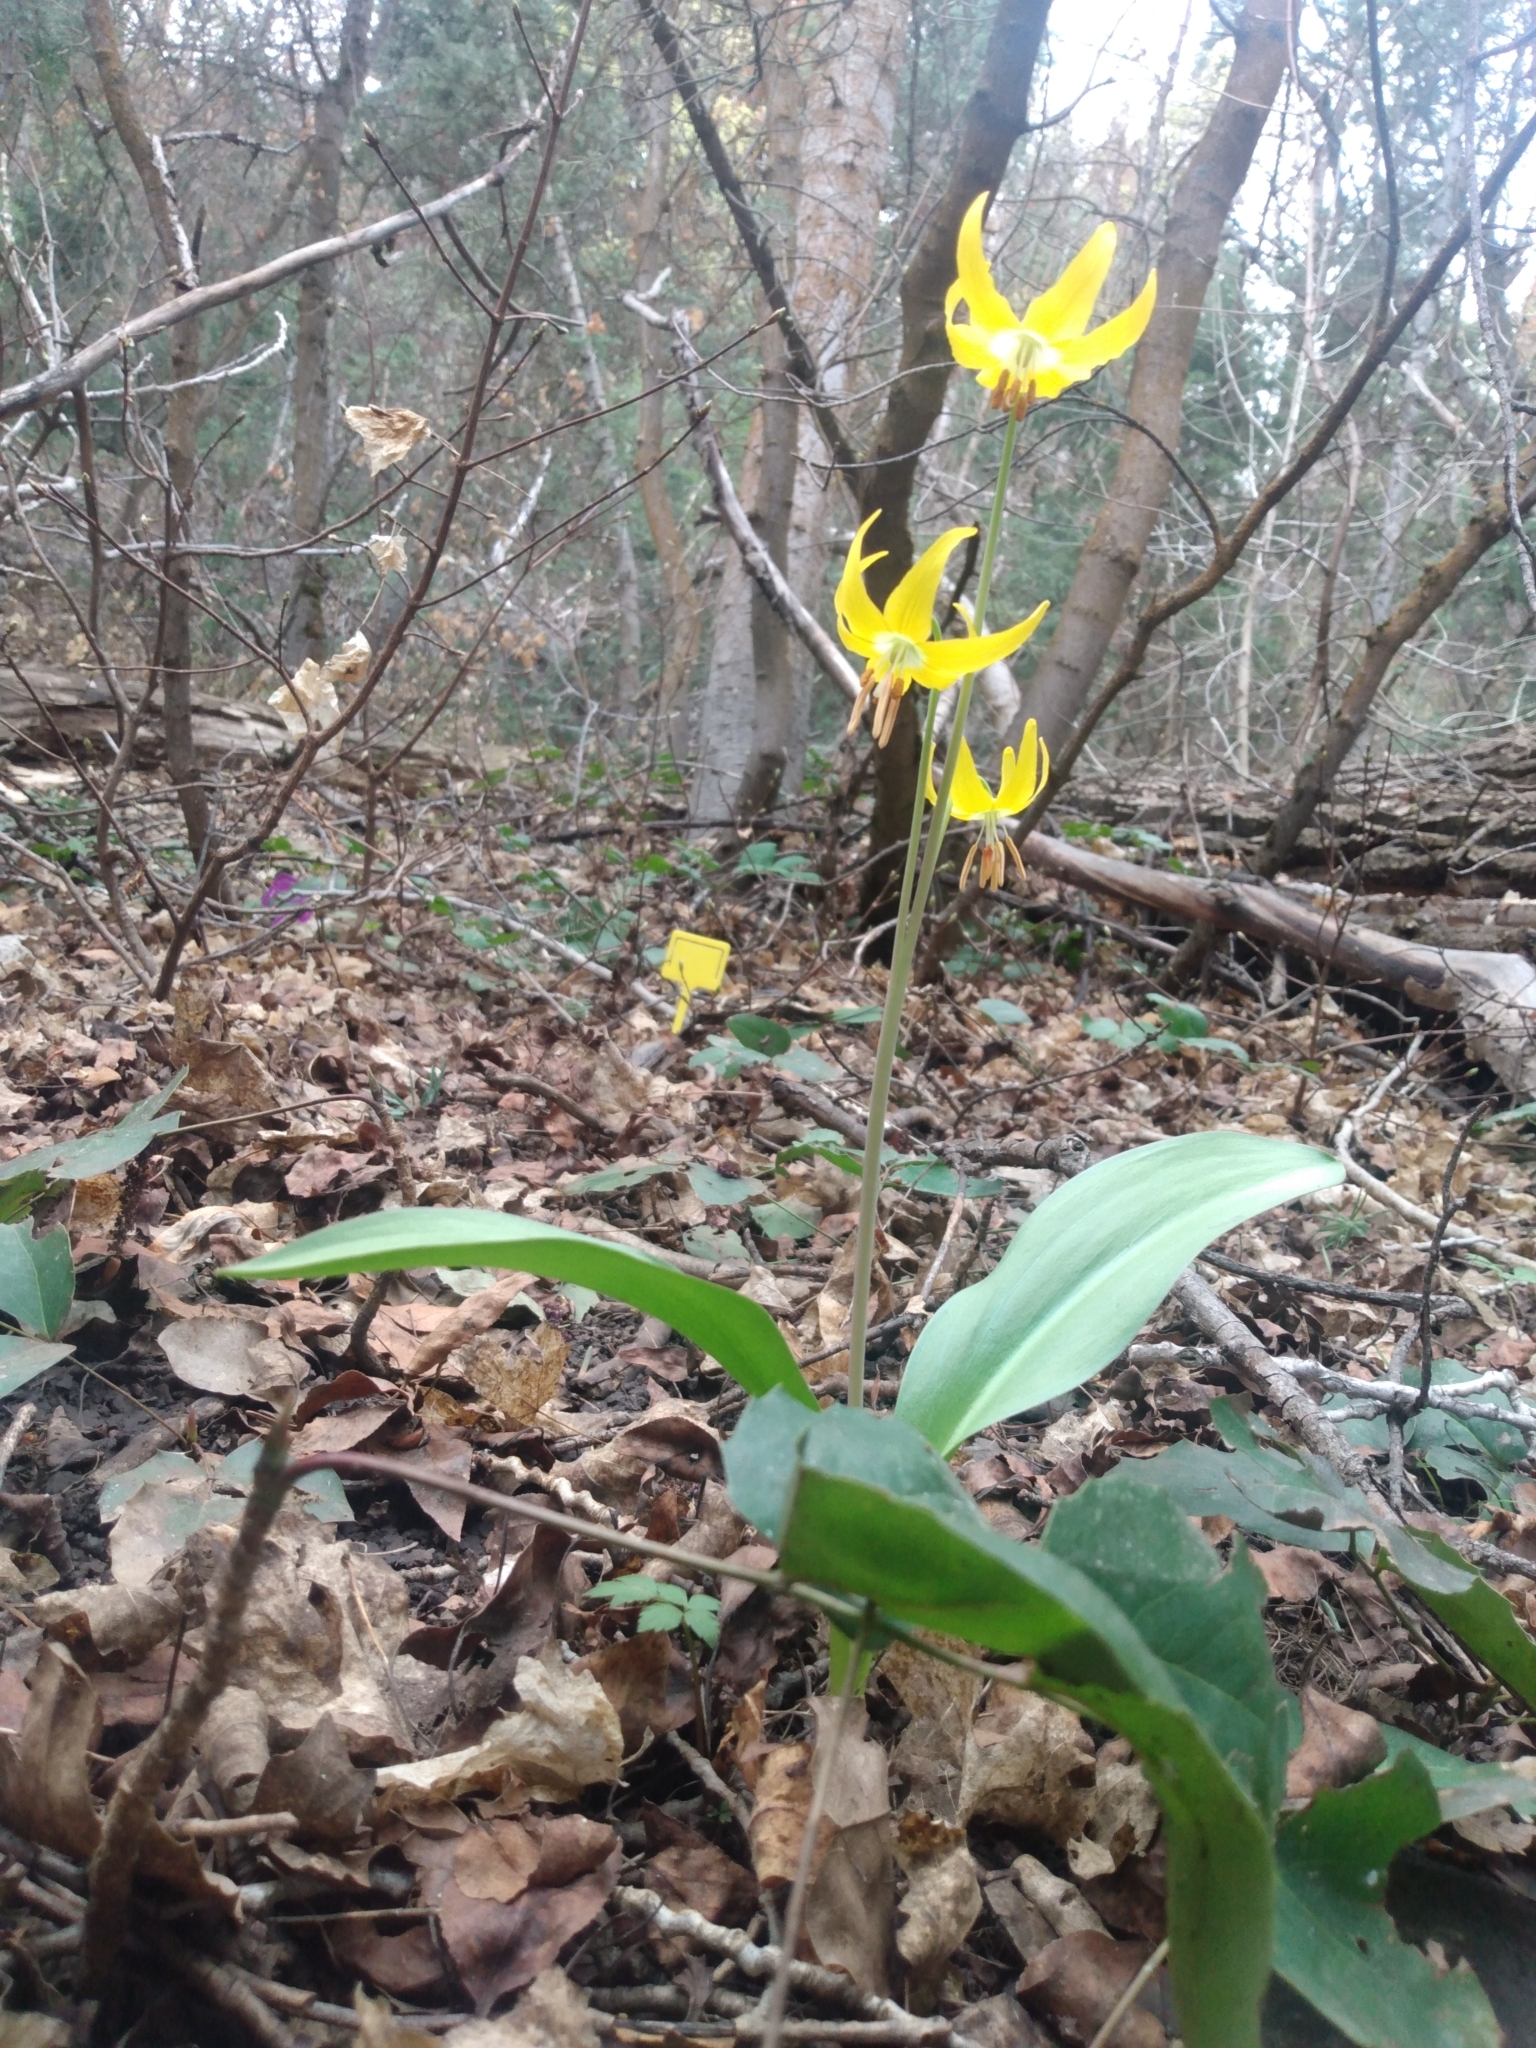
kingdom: Plantae
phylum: Tracheophyta
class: Liliopsida
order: Liliales
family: Liliaceae
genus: Erythronium
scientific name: Erythronium grandiflorum
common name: Avalanche-lily
